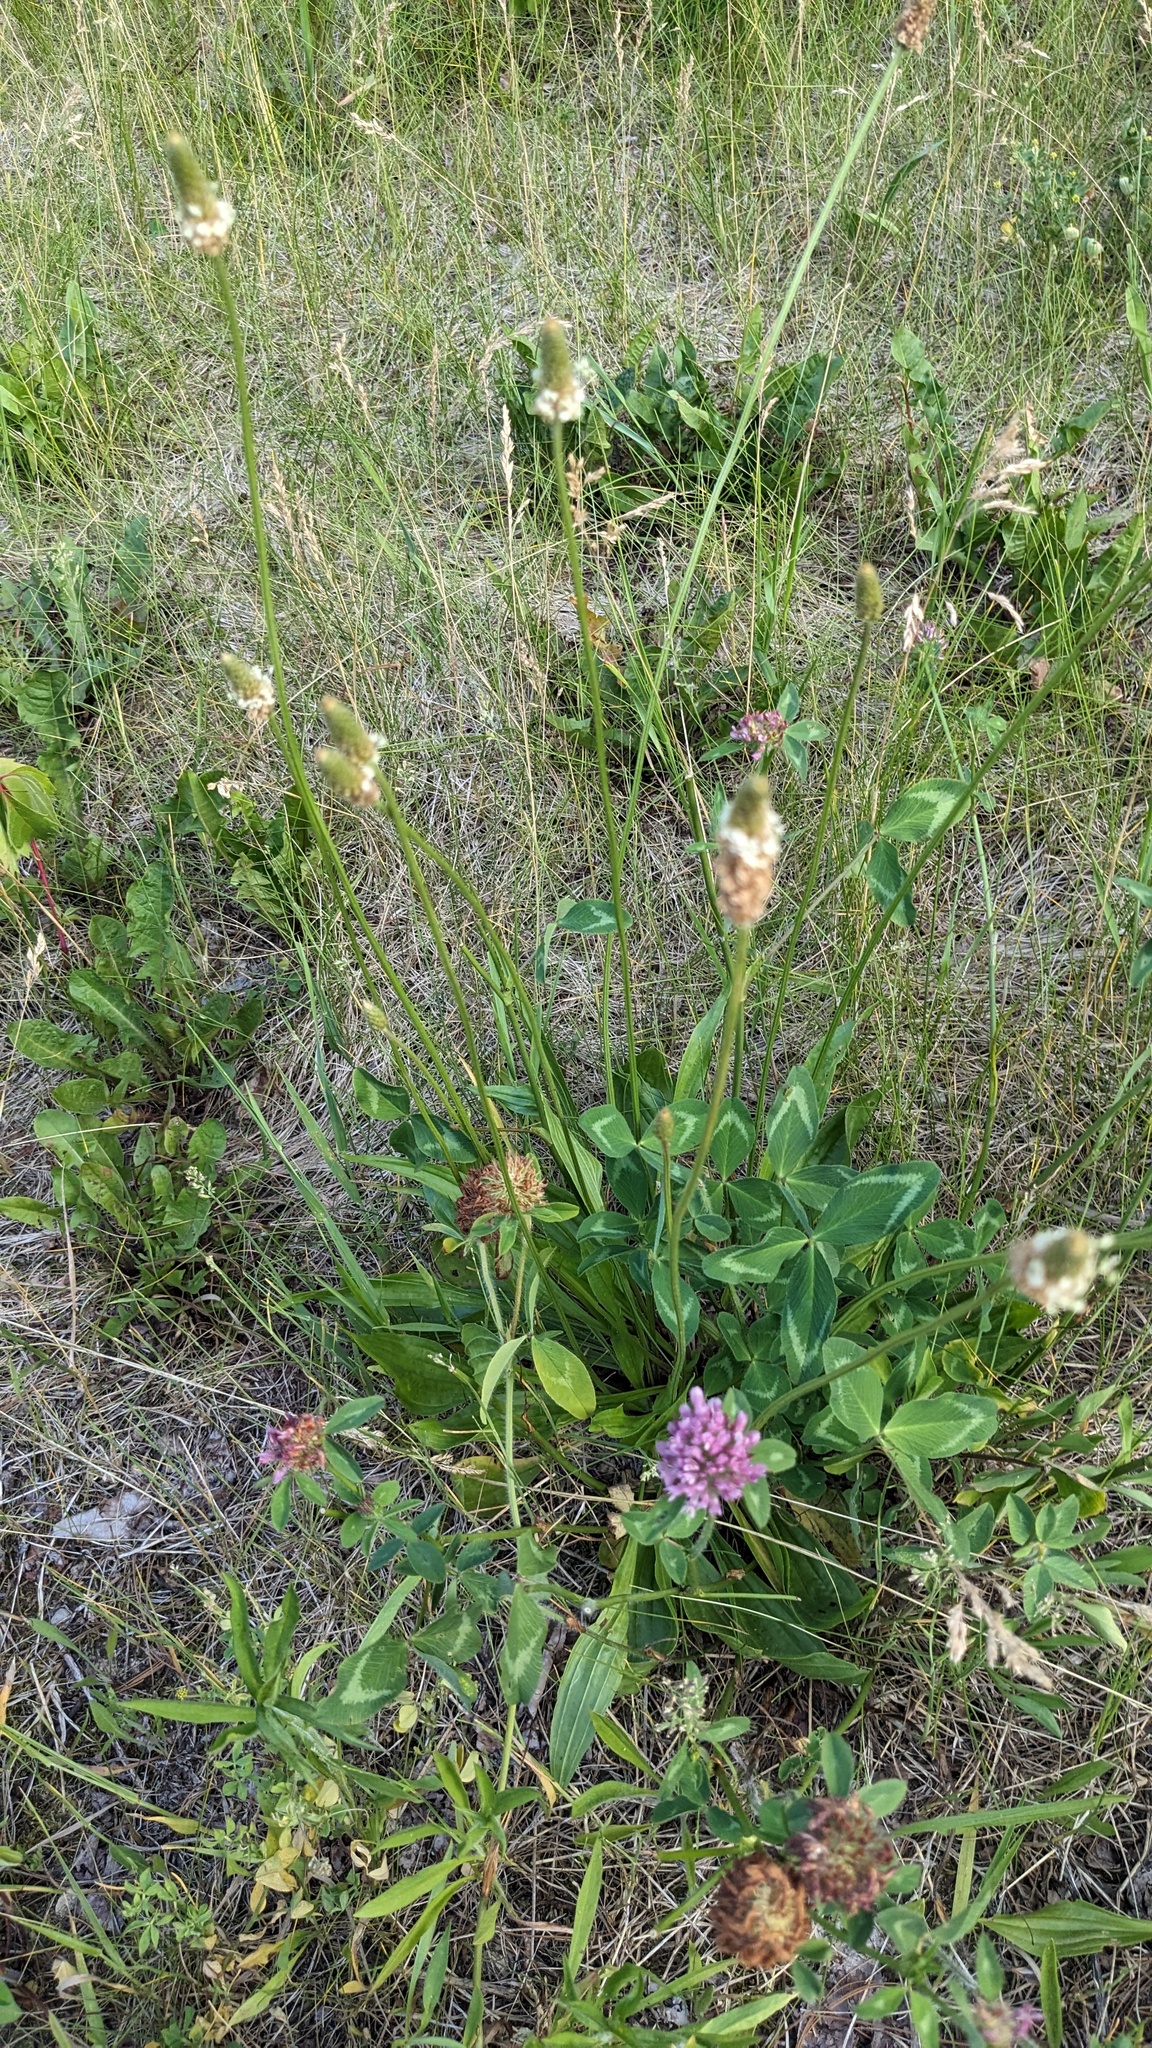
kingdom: Plantae
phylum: Tracheophyta
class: Magnoliopsida
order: Lamiales
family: Plantaginaceae
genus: Plantago
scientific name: Plantago lanceolata
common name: Ribwort plantain
